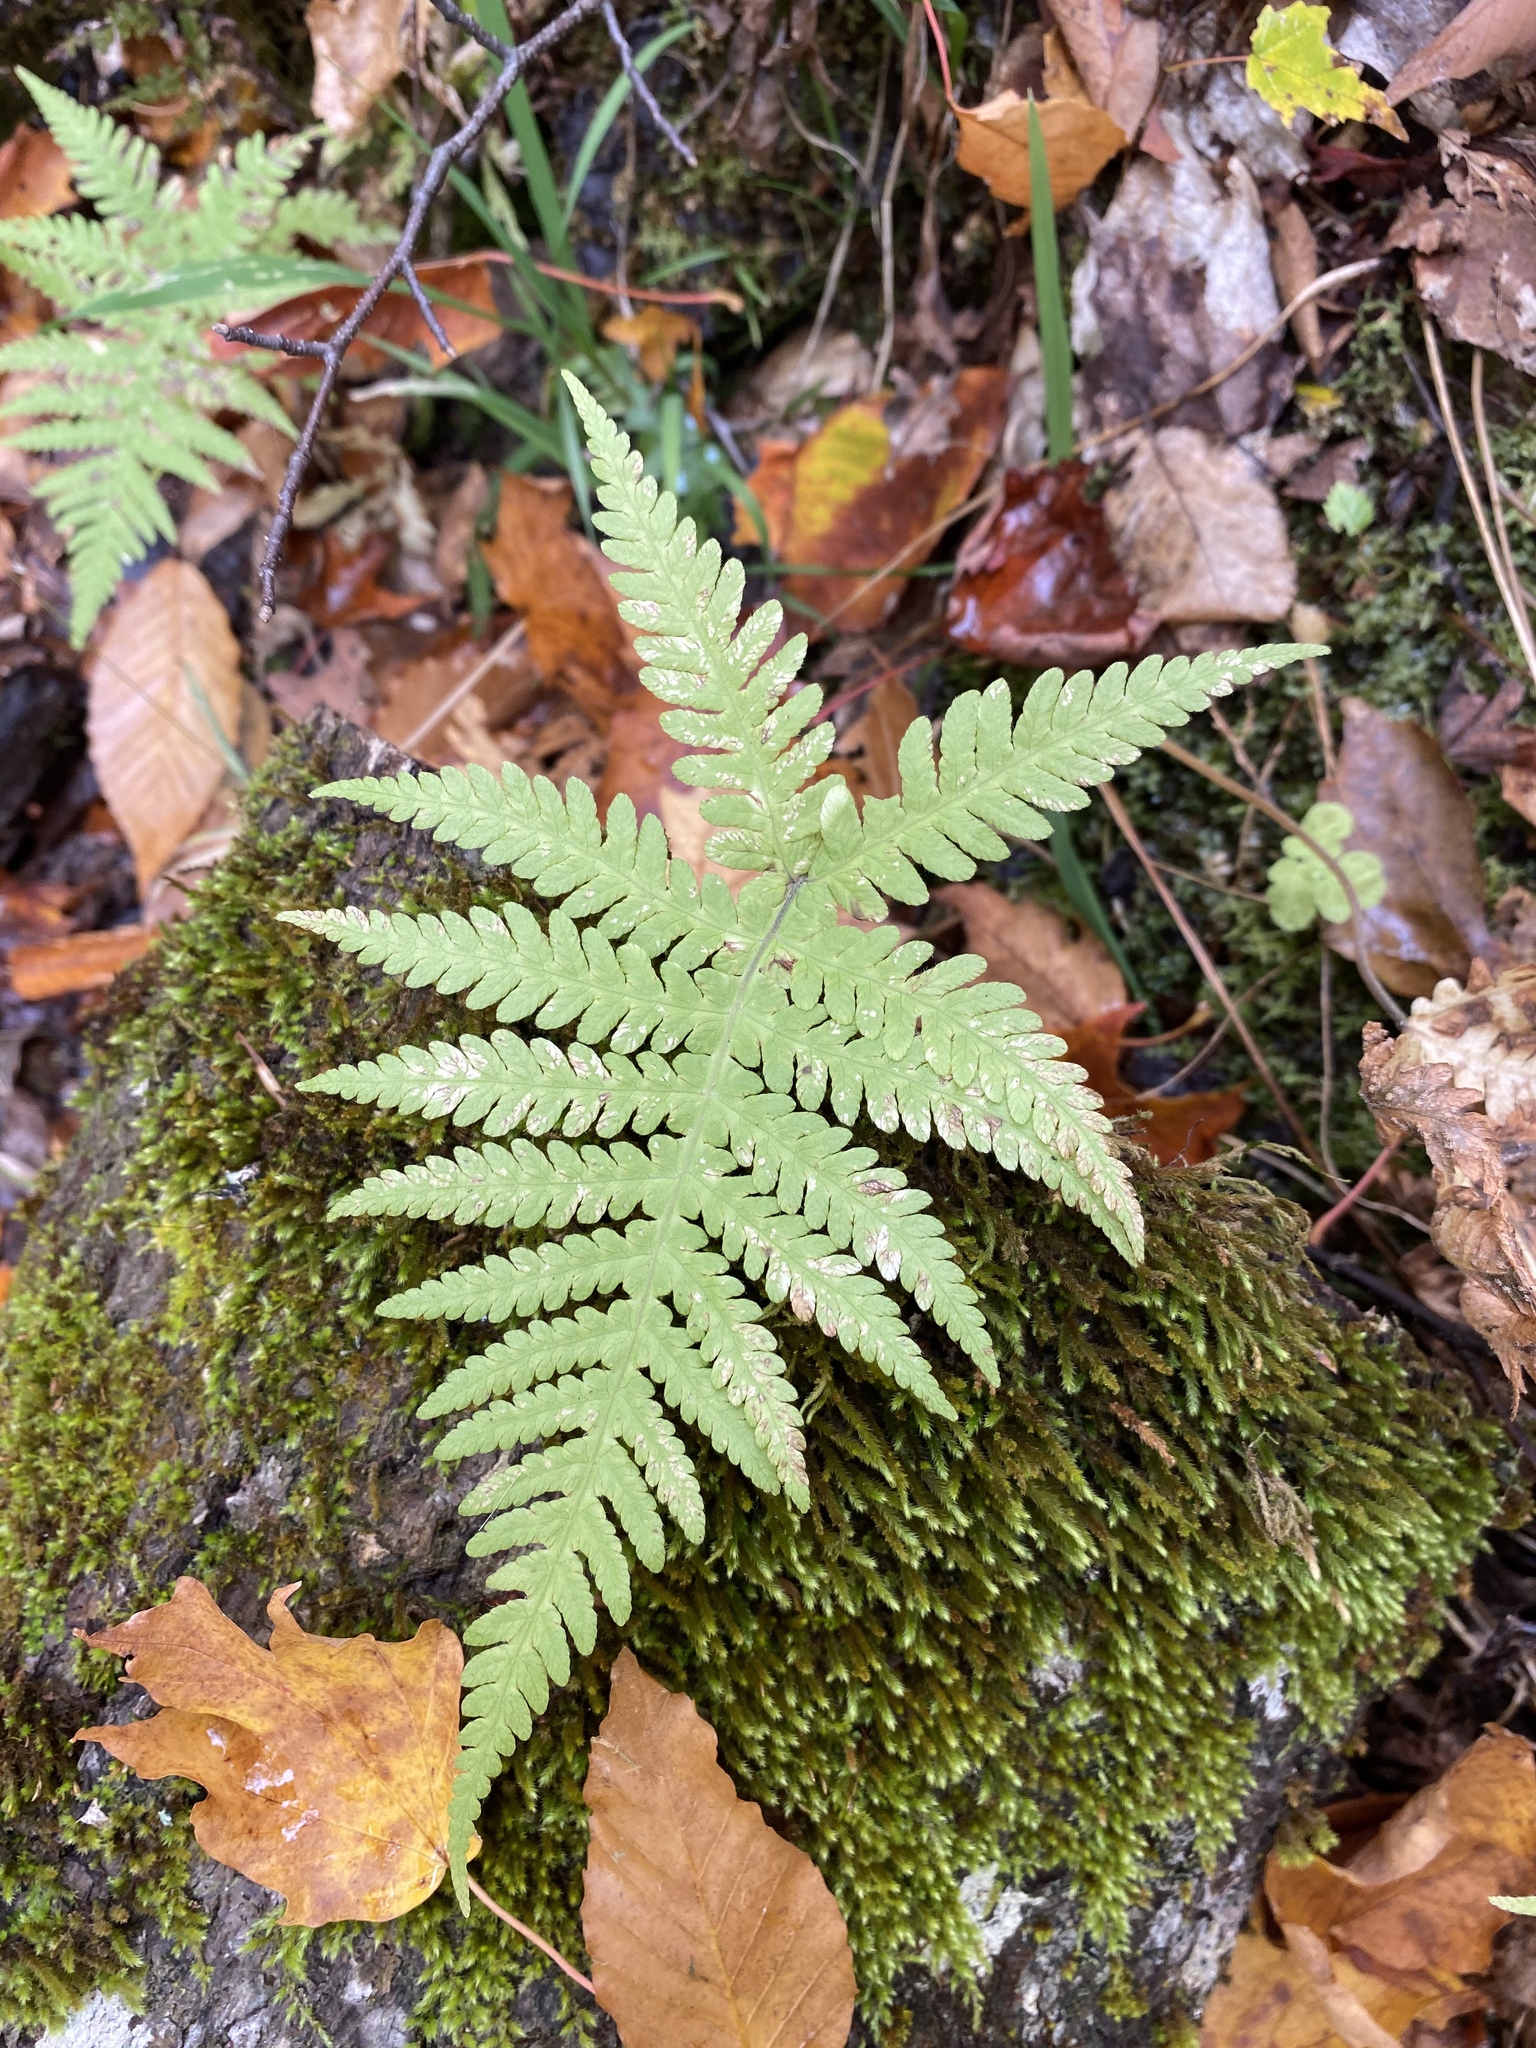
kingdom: Plantae
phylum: Tracheophyta
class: Polypodiopsida
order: Polypodiales
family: Thelypteridaceae
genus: Phegopteris
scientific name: Phegopteris connectilis
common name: Beech fern
